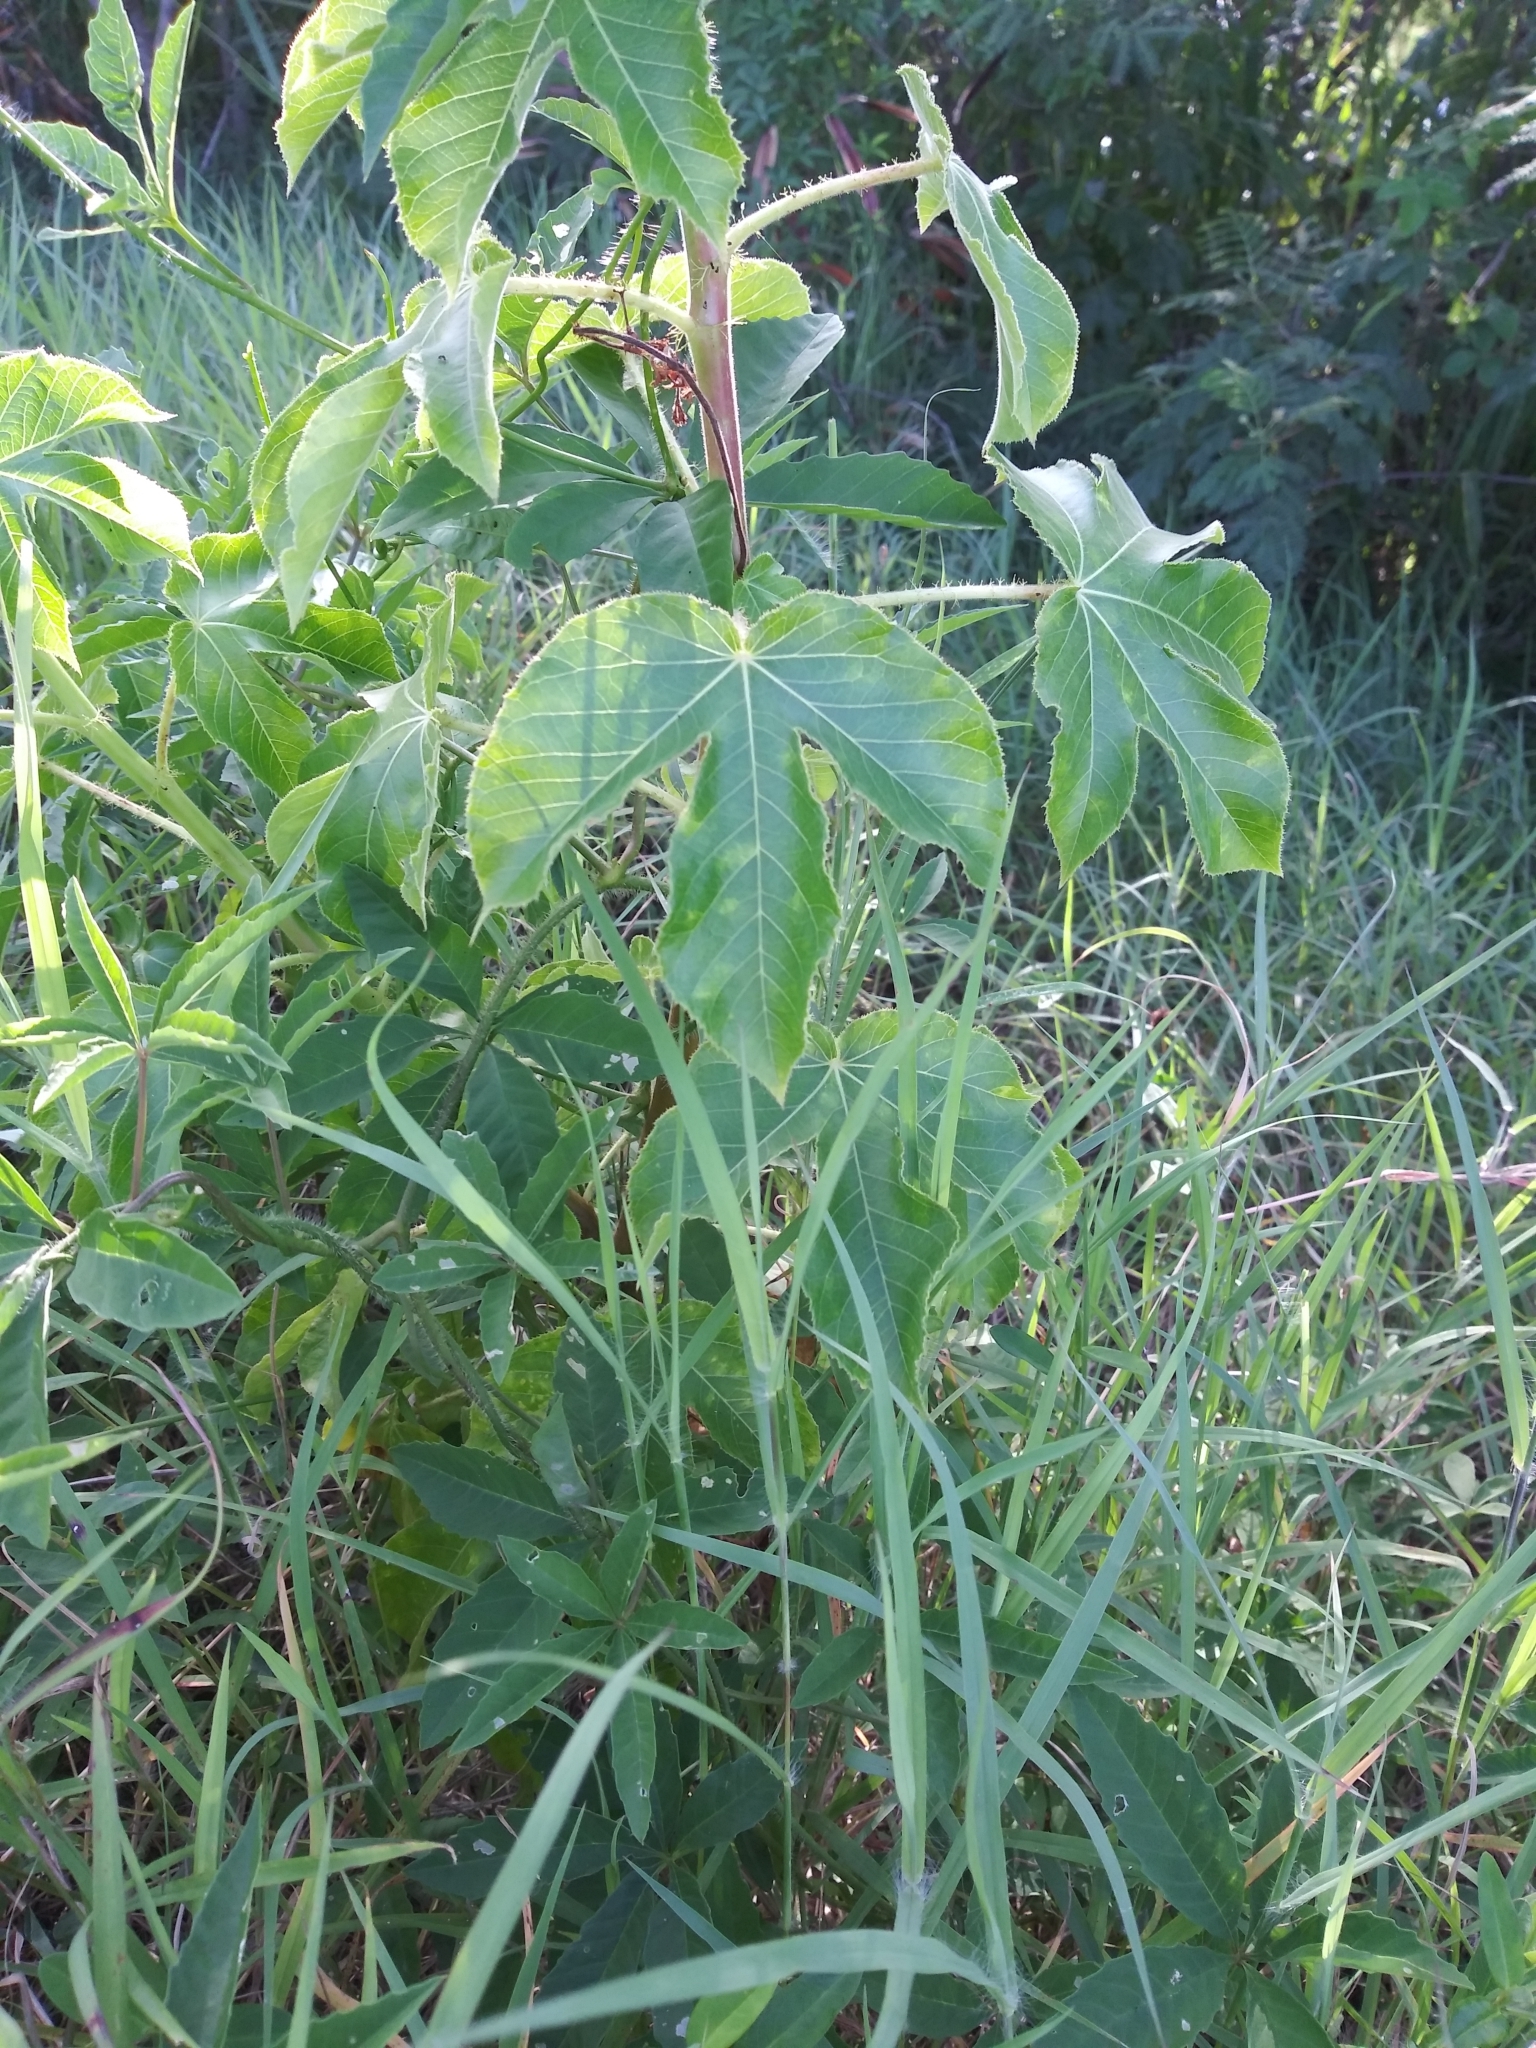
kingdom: Plantae
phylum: Tracheophyta
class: Magnoliopsida
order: Malpighiales
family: Euphorbiaceae
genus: Jatropha
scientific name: Jatropha gossypiifolia
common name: Bellyache bush
